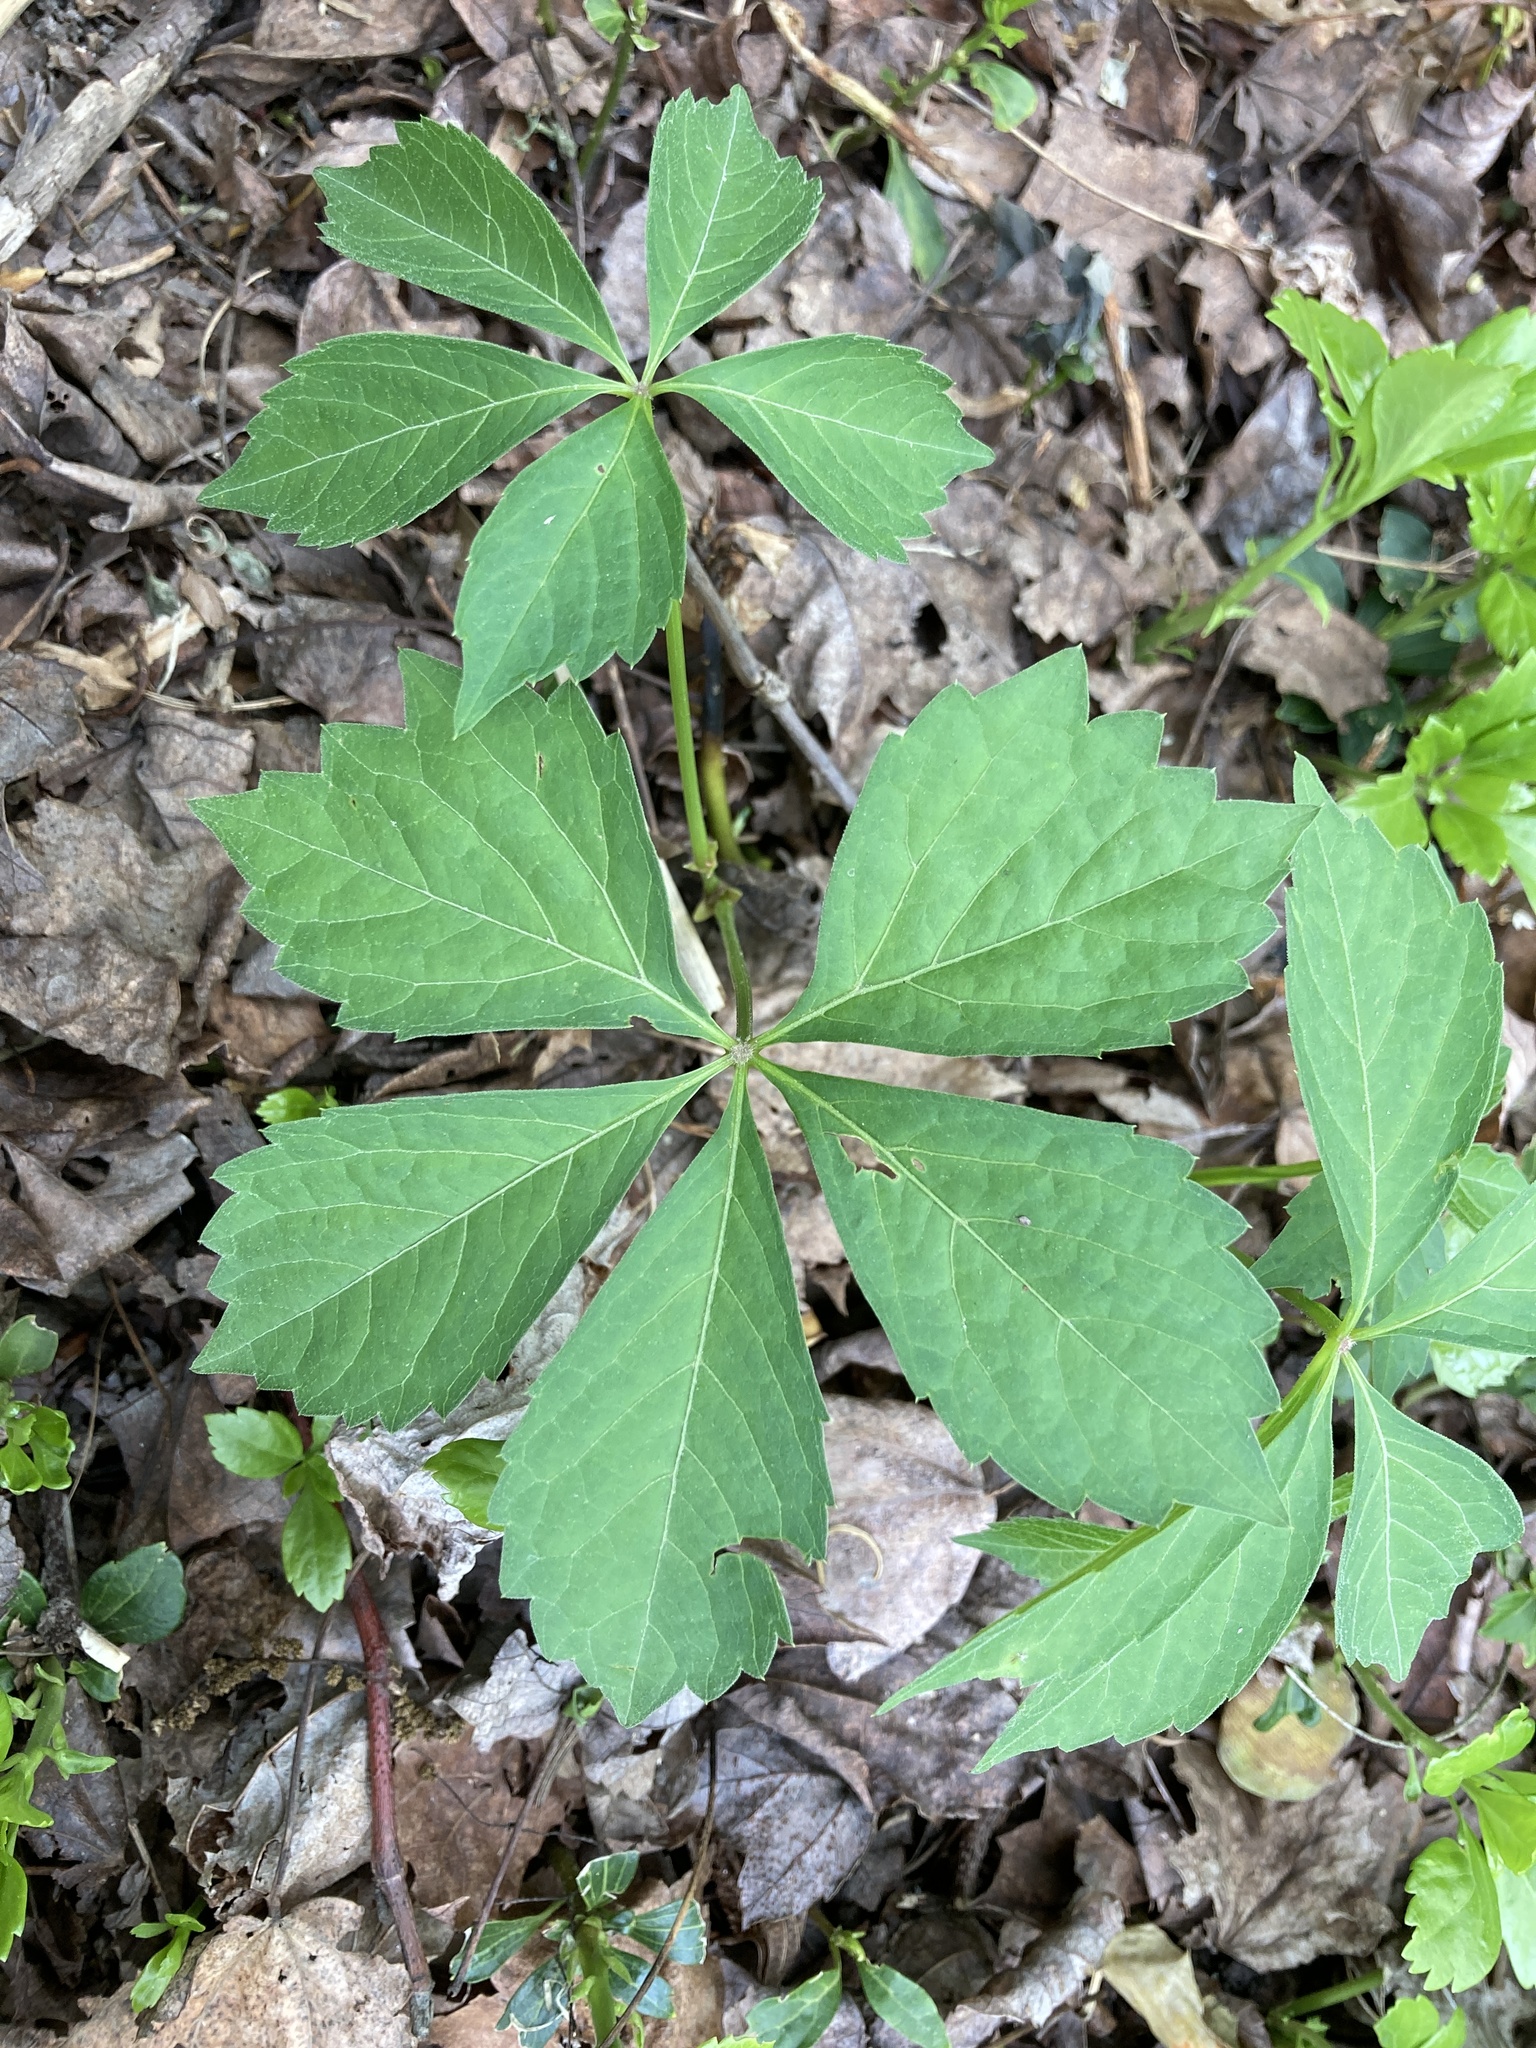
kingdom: Plantae
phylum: Tracheophyta
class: Magnoliopsida
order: Vitales
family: Vitaceae
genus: Parthenocissus
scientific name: Parthenocissus quinquefolia
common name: Virginia-creeper
